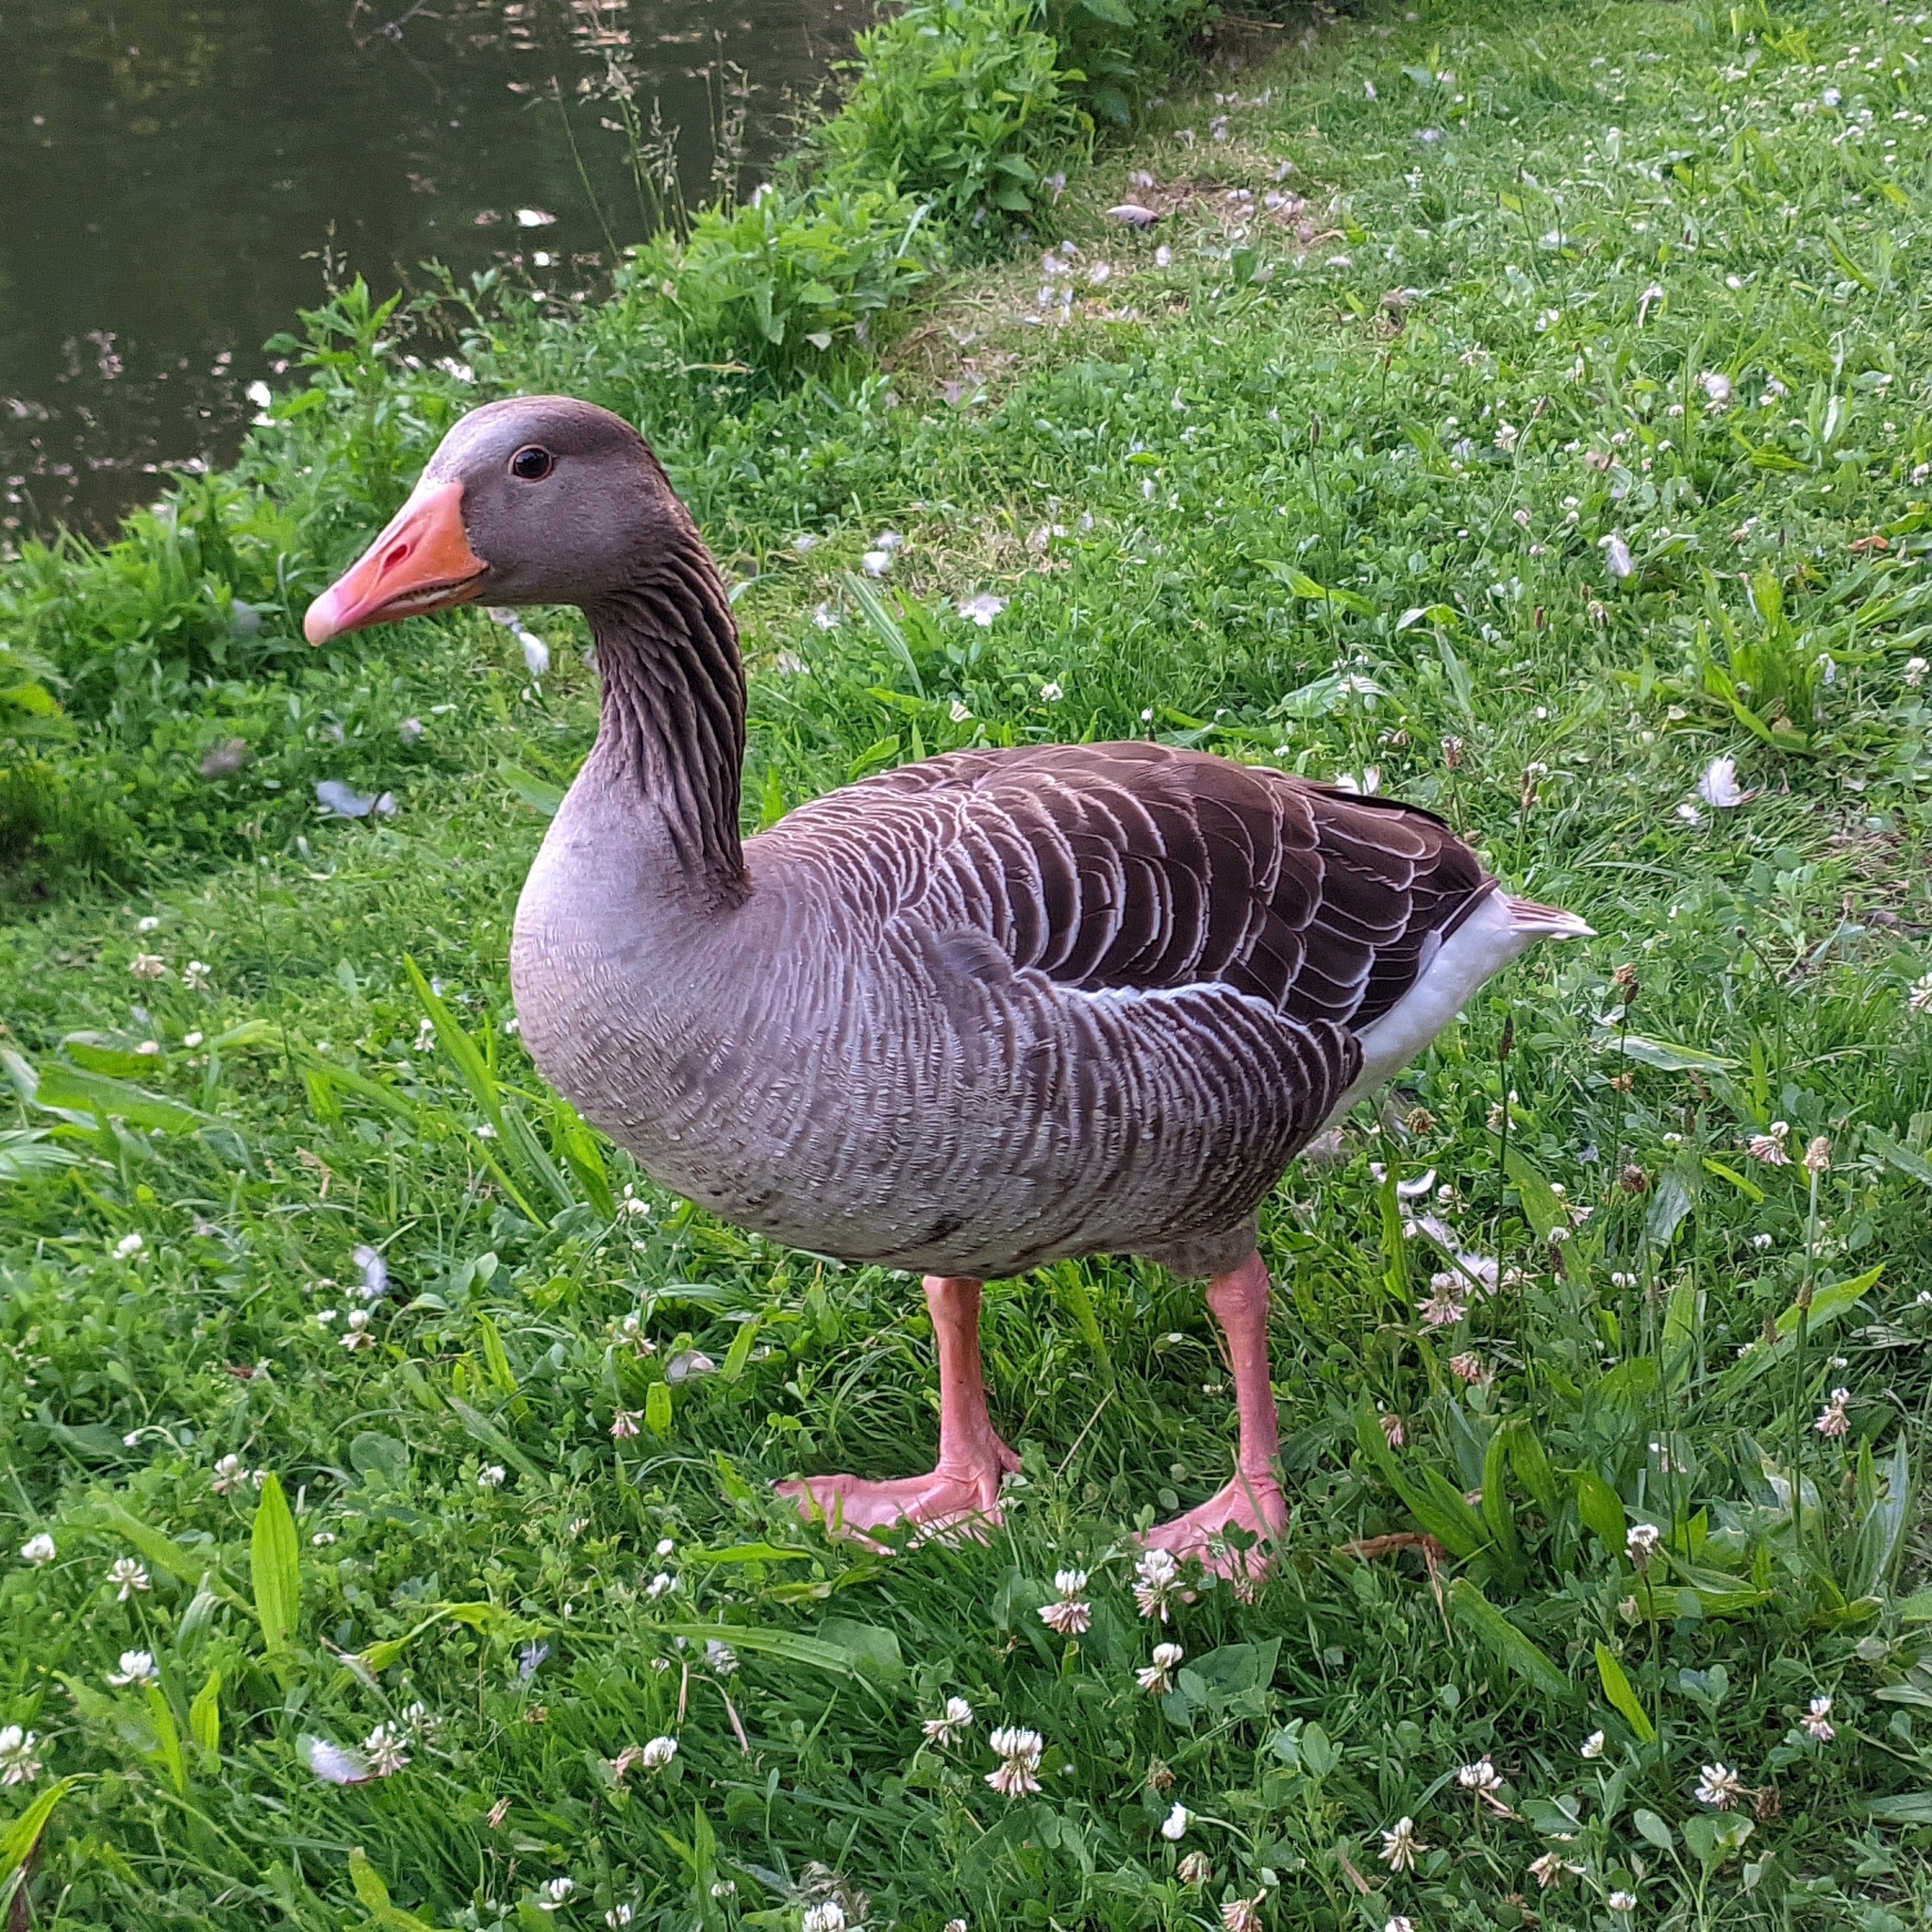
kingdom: Animalia
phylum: Chordata
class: Aves
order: Anseriformes
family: Anatidae
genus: Anser
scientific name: Anser anser
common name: Greylag goose
